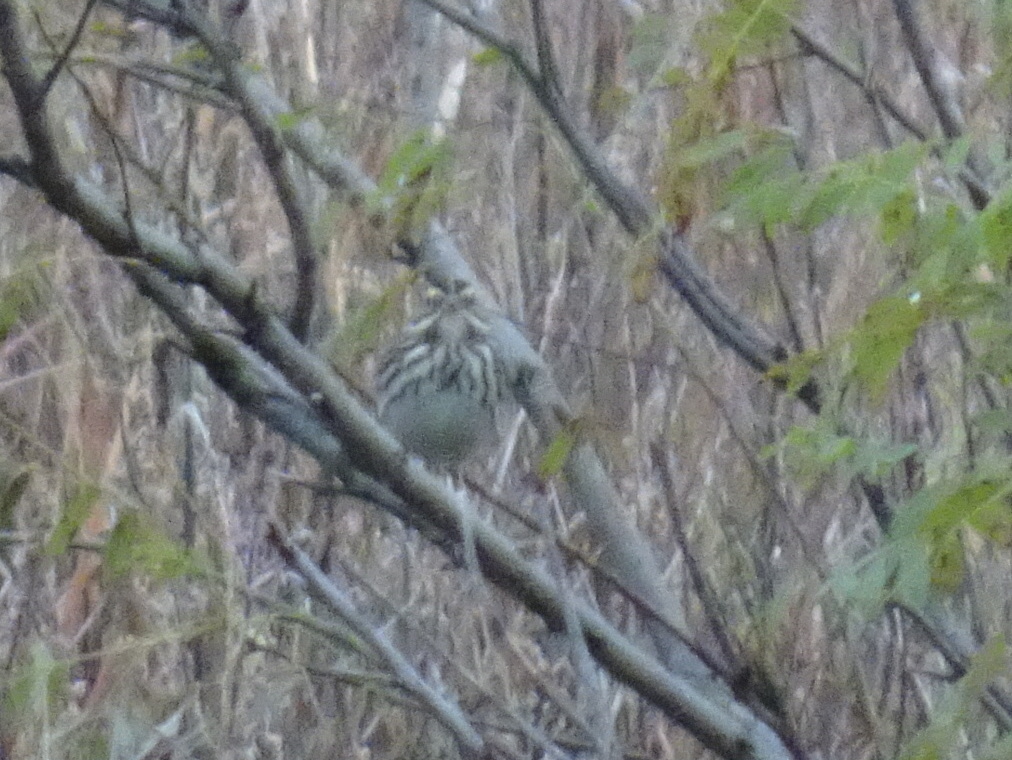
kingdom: Animalia
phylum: Chordata
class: Aves
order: Passeriformes
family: Passerellidae
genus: Passerculus
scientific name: Passerculus sandwichensis
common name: Savannah sparrow
